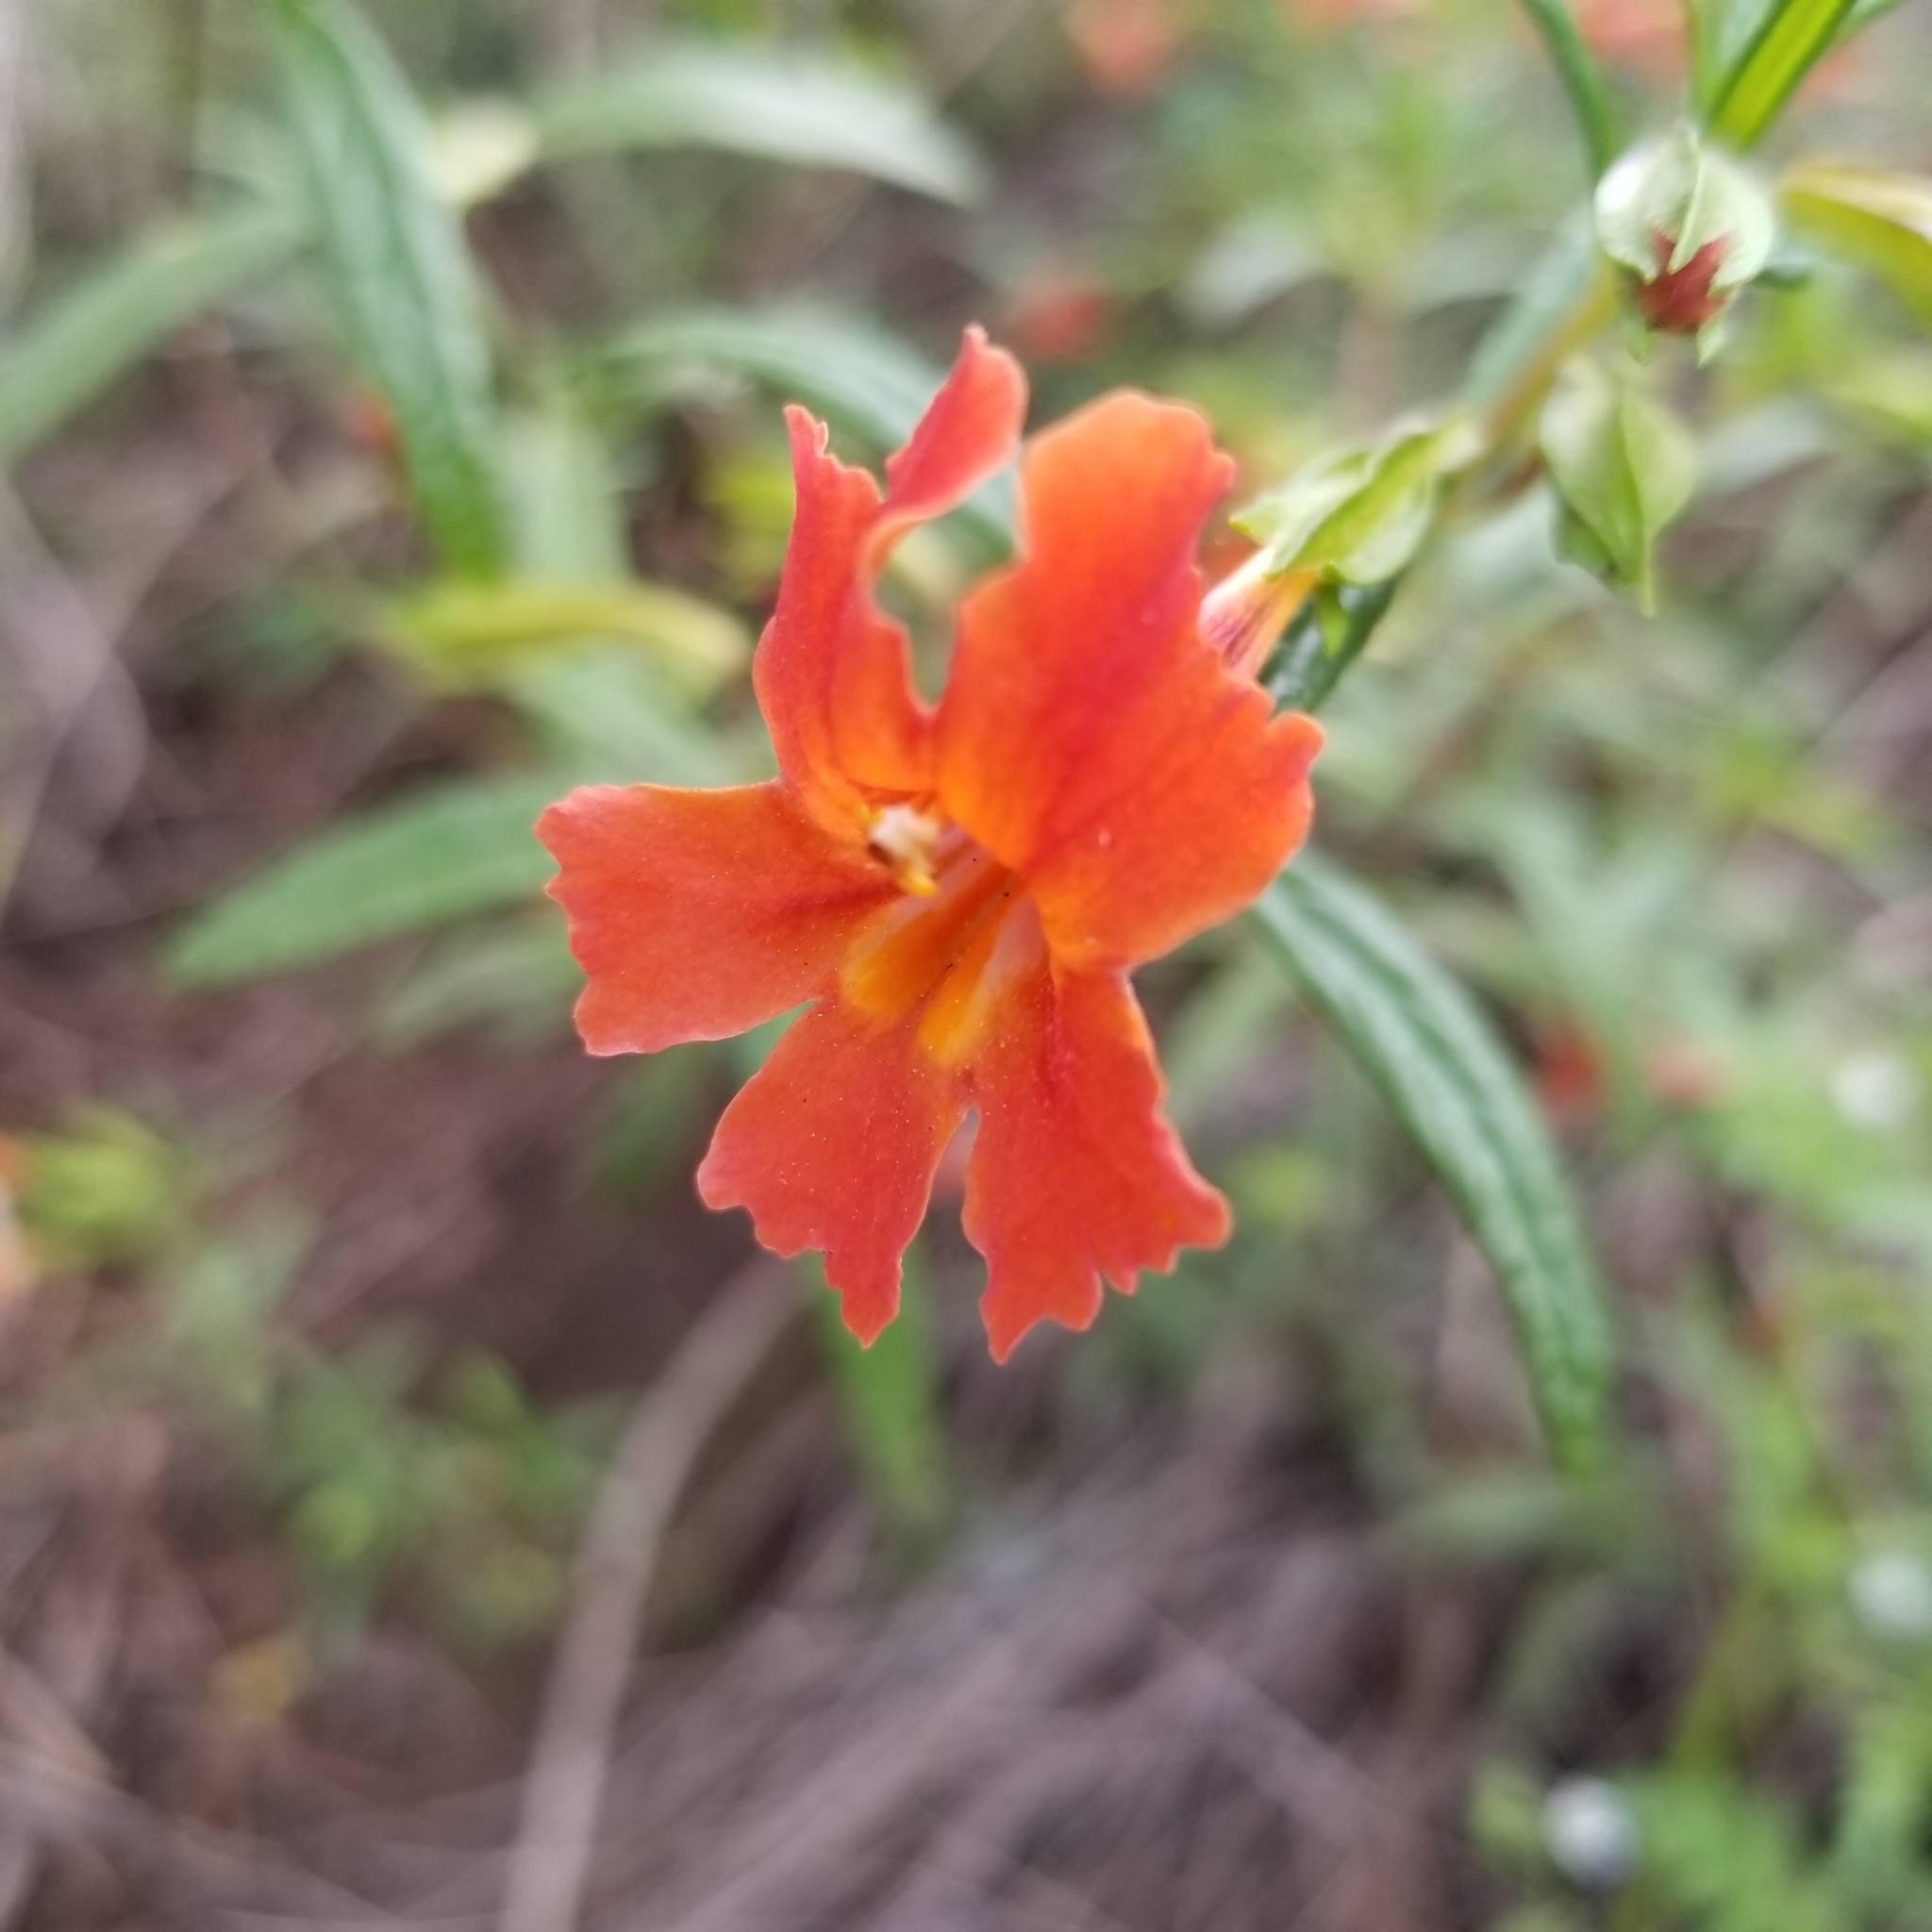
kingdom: Plantae
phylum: Tracheophyta
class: Magnoliopsida
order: Lamiales
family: Phrymaceae
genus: Diplacus
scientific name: Diplacus puniceus
